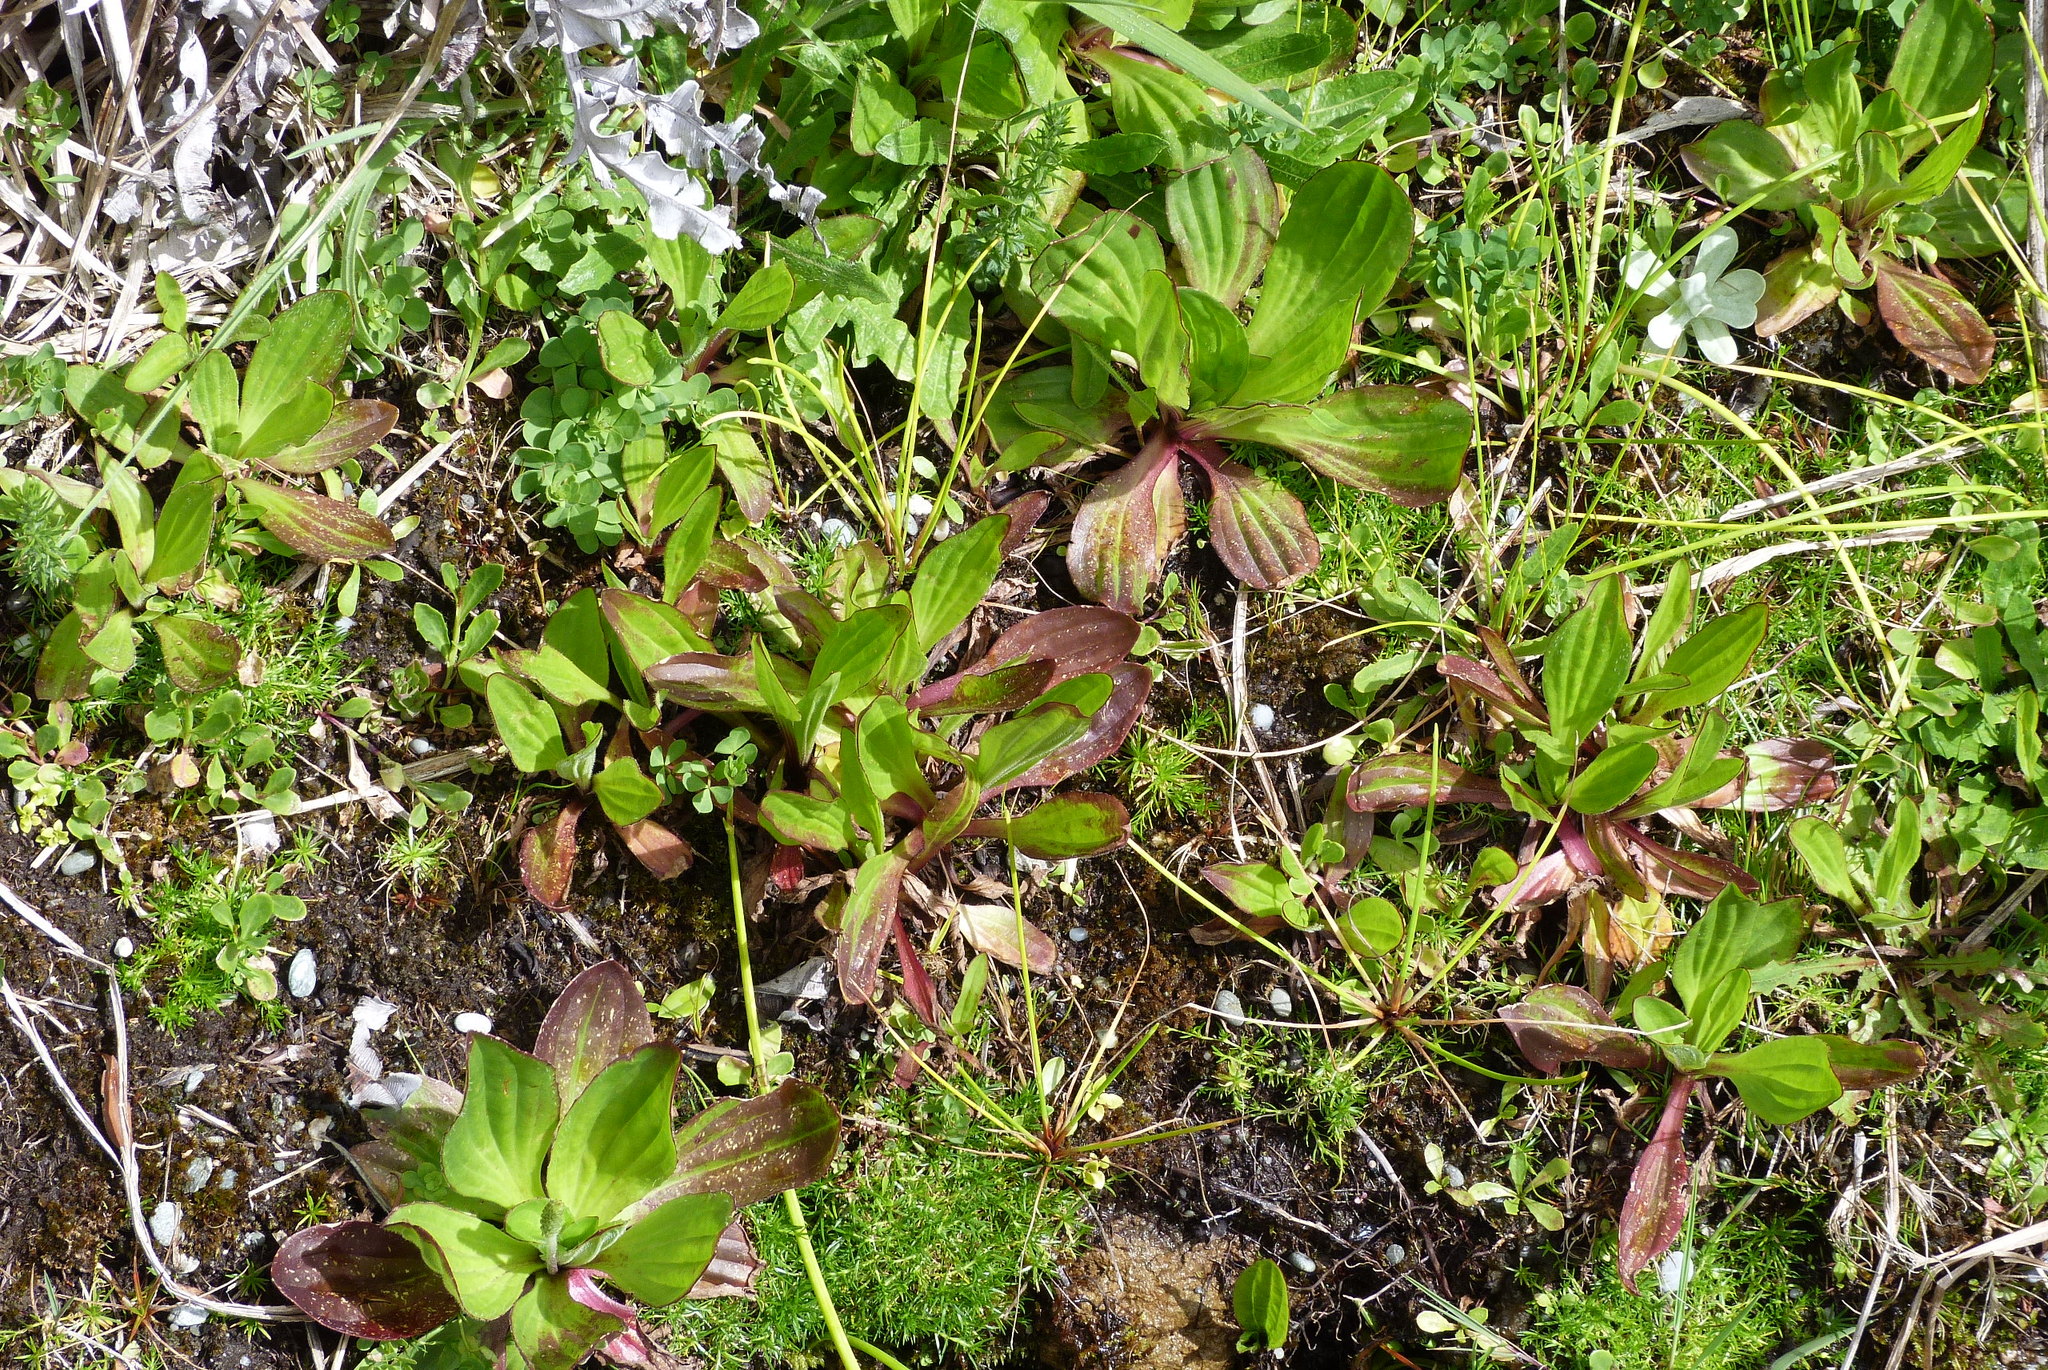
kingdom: Plantae
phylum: Tracheophyta
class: Magnoliopsida
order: Lamiales
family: Plantaginaceae
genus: Plantago
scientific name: Plantago australis
